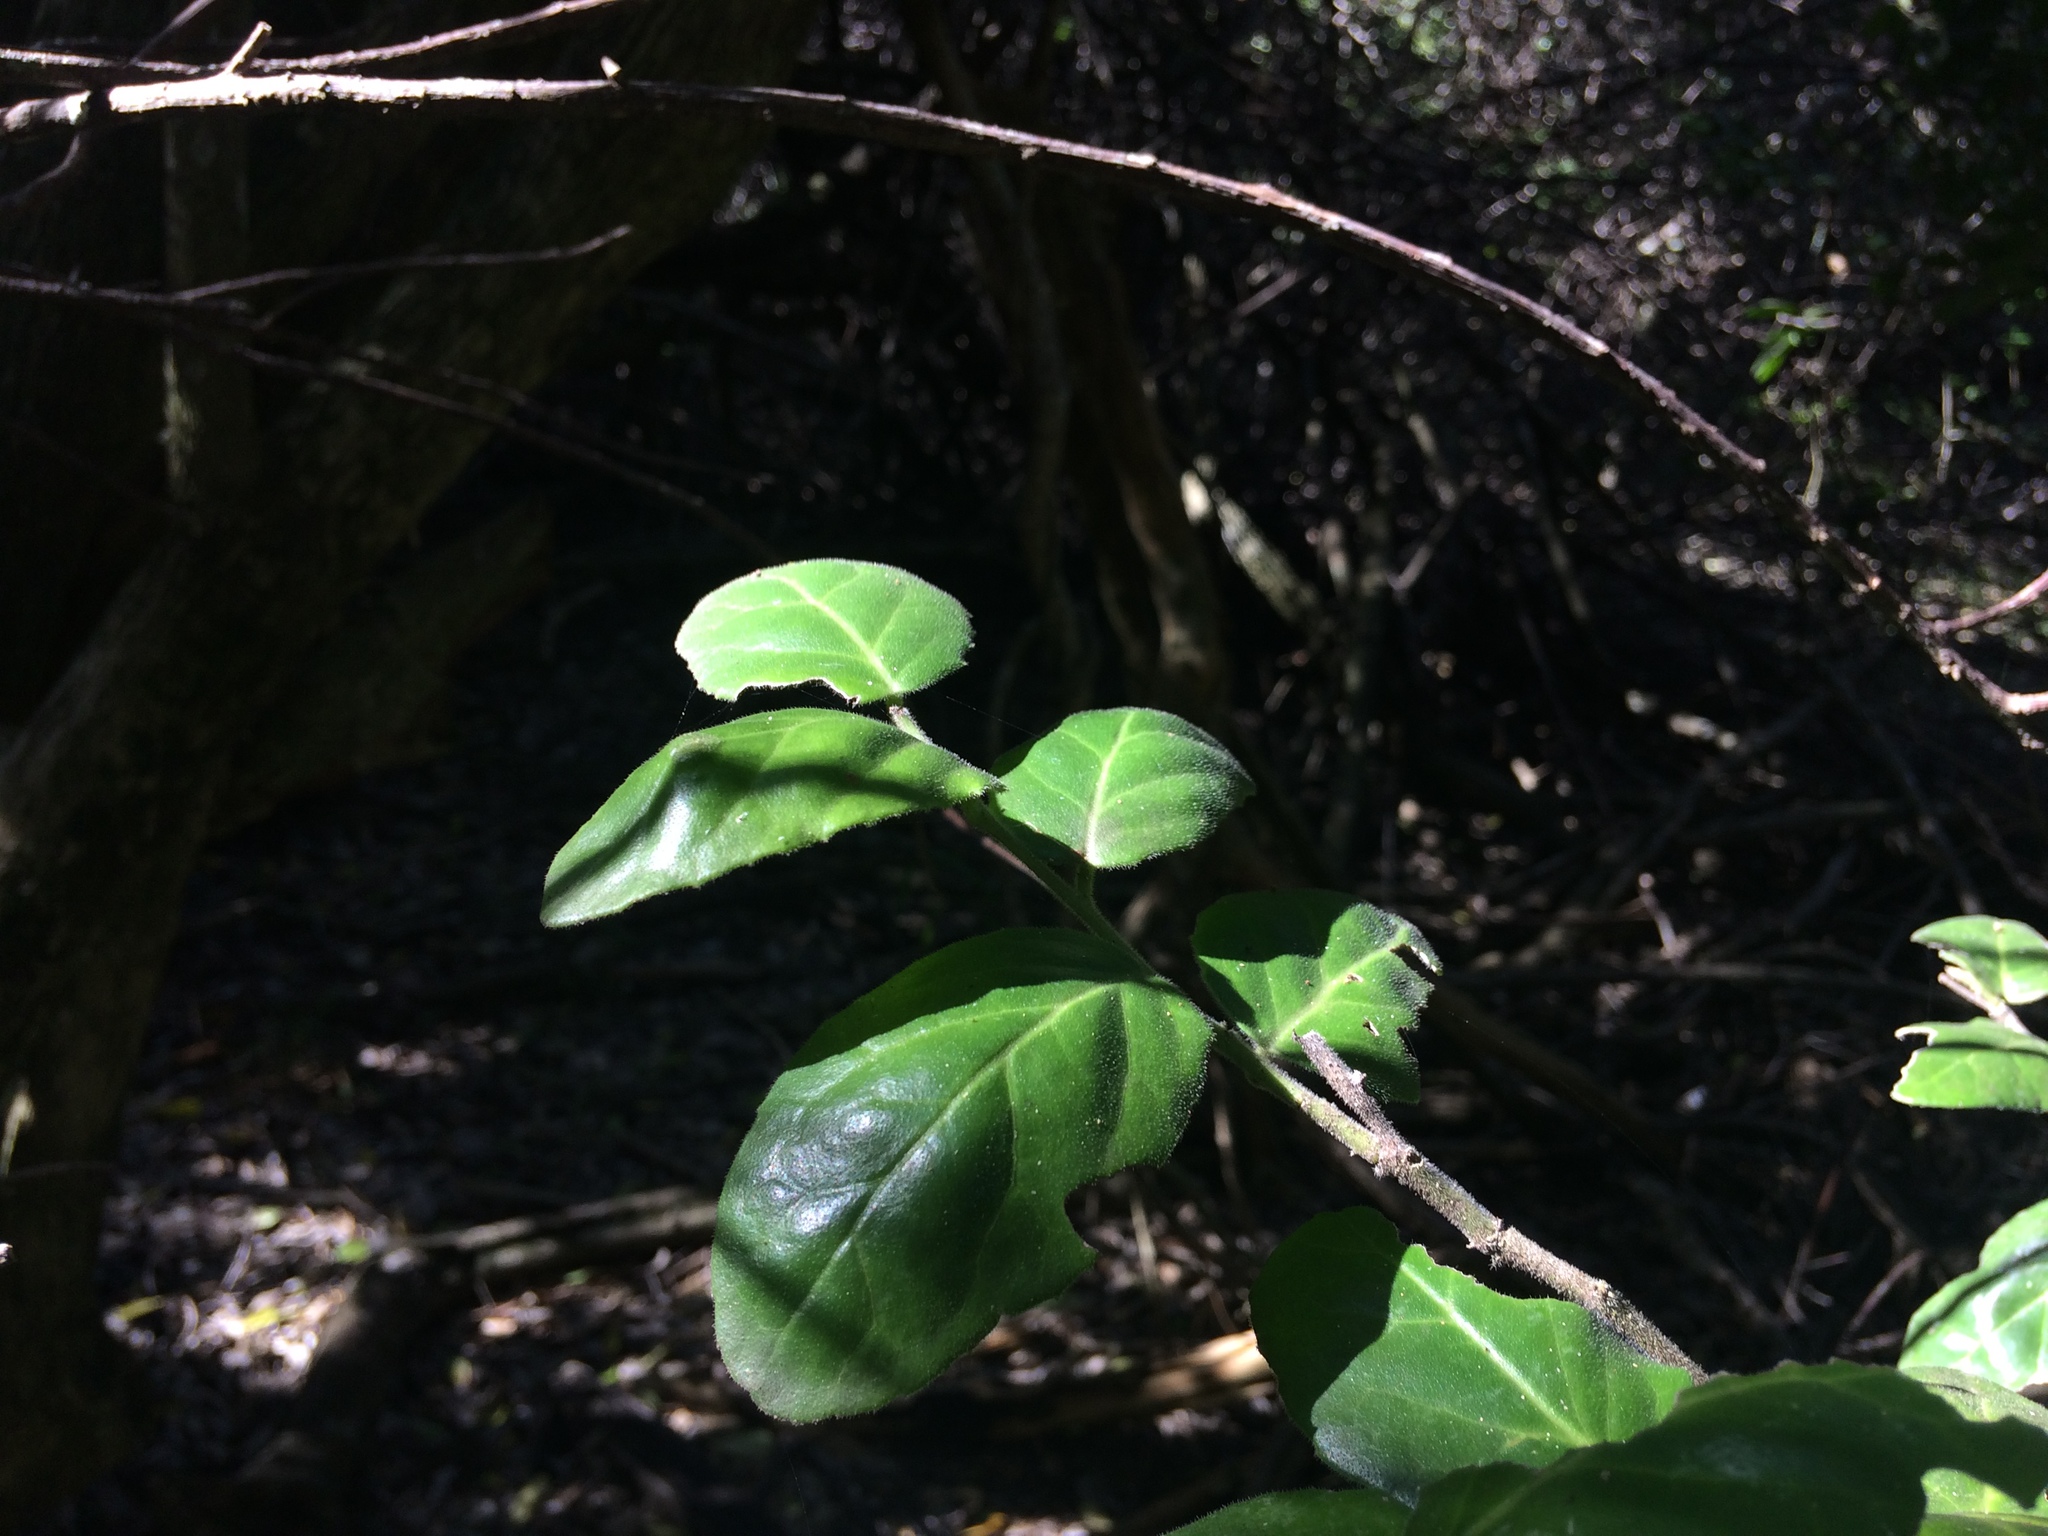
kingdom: Plantae
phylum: Tracheophyta
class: Magnoliopsida
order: Celastrales
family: Celastraceae
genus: Mystroxylon
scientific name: Mystroxylon aethiopicum
